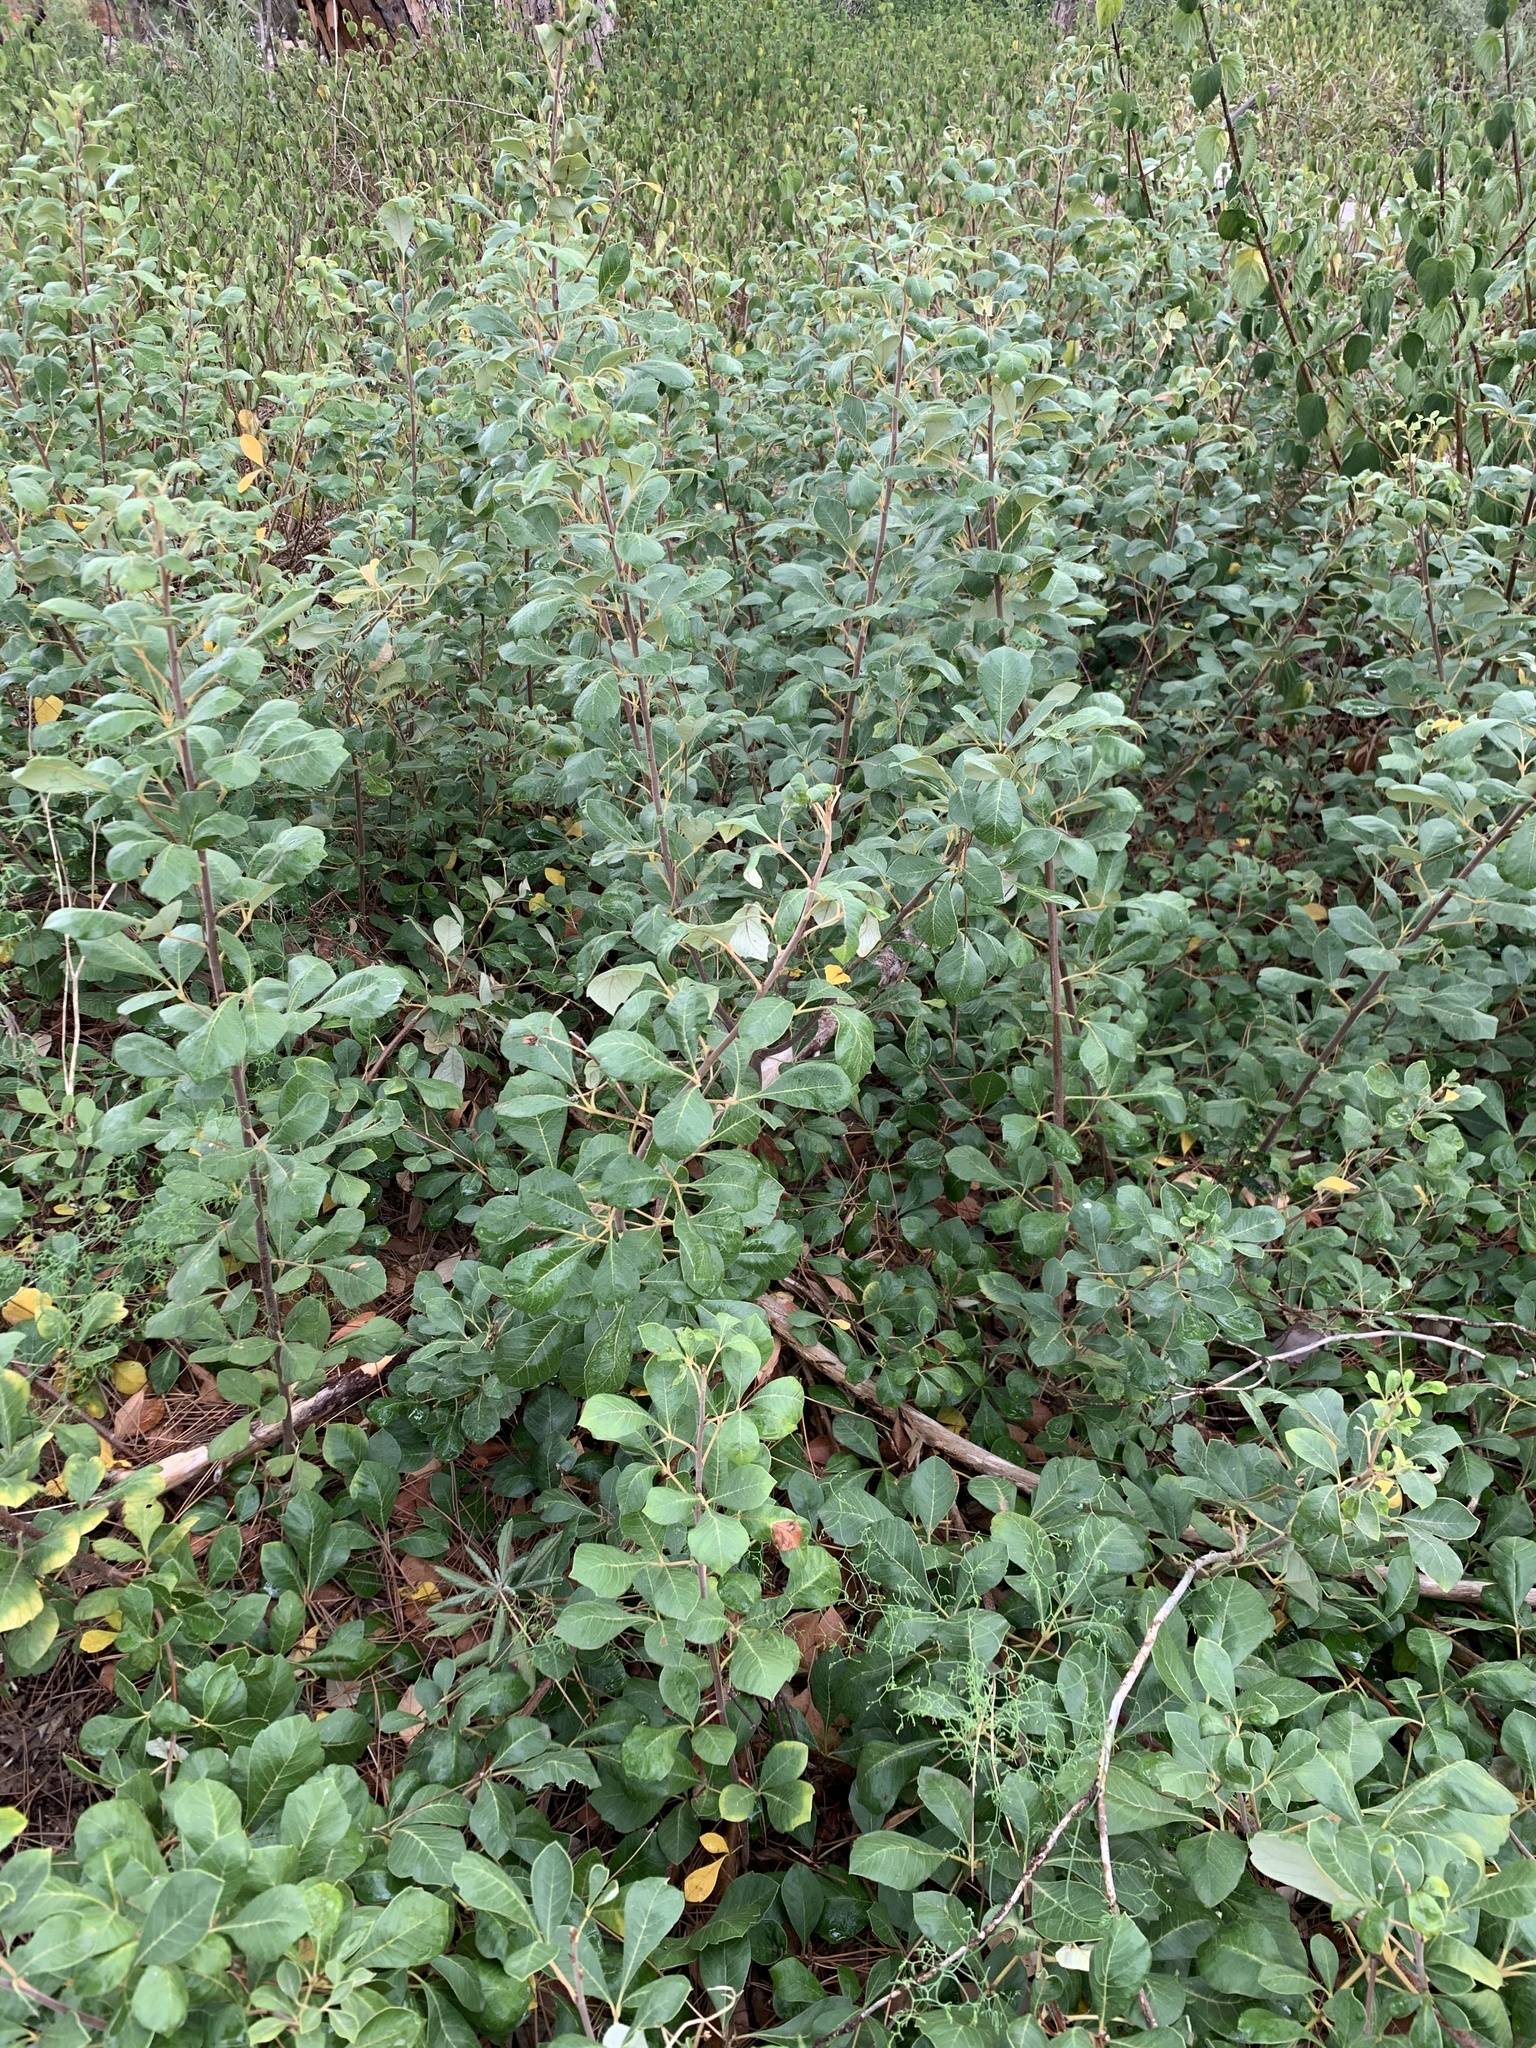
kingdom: Plantae
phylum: Tracheophyta
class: Magnoliopsida
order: Sapindales
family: Anacardiaceae
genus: Searsia
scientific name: Searsia tomentosa
